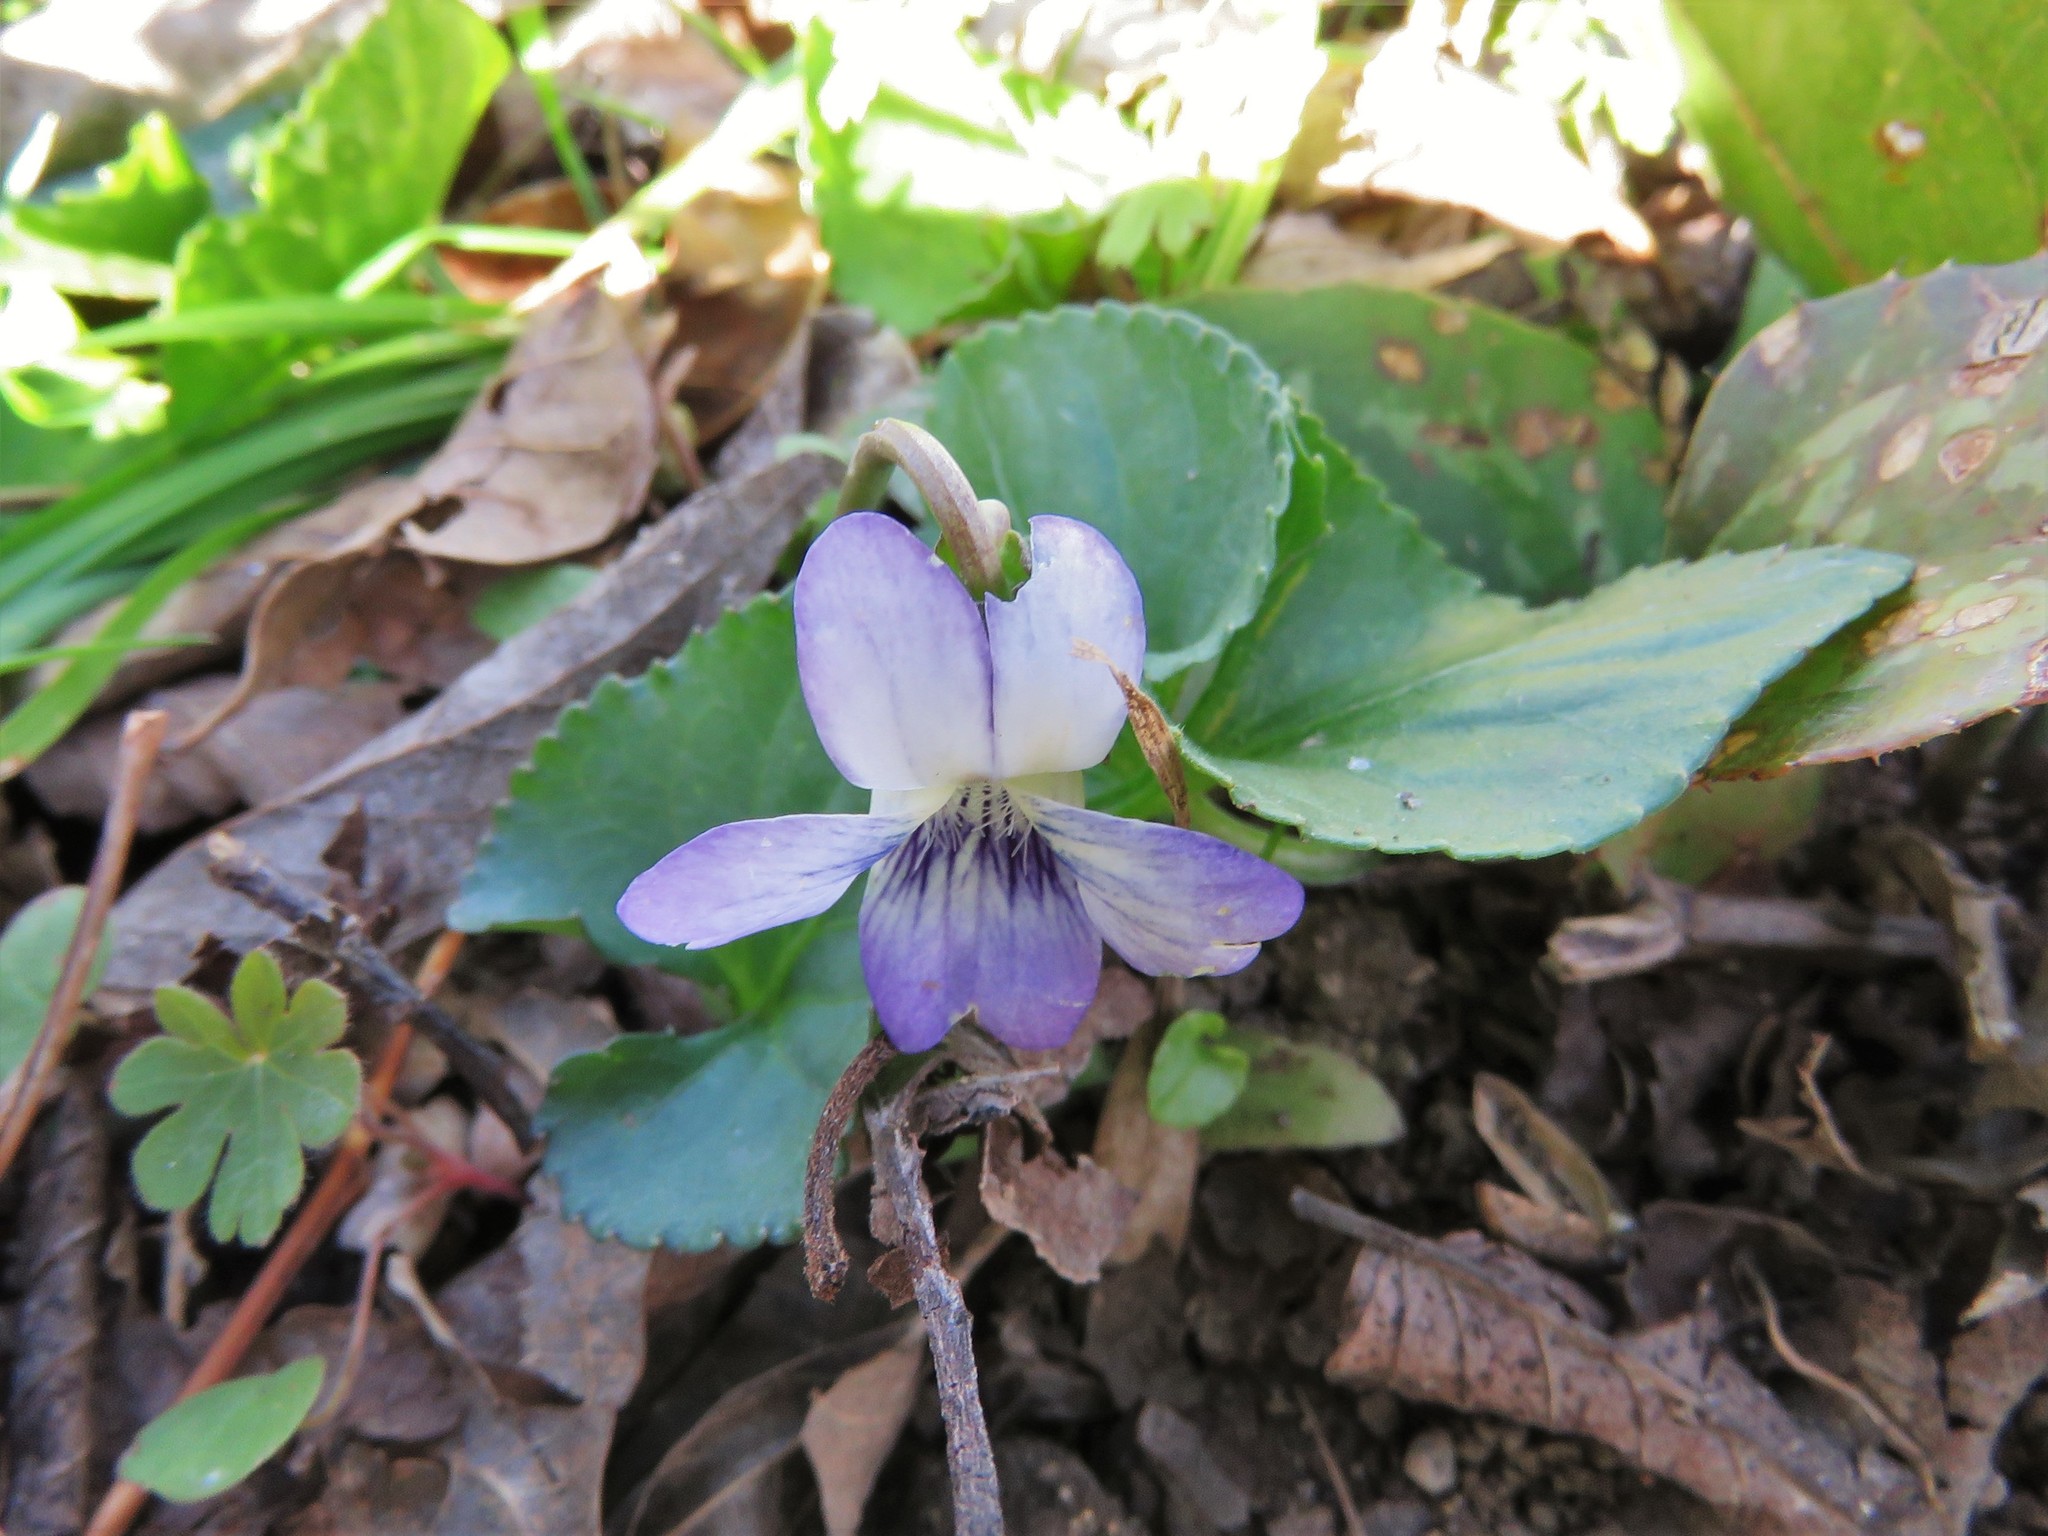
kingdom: Plantae
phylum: Tracheophyta
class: Magnoliopsida
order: Malpighiales
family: Violaceae
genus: Viola
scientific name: Viola sororia
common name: Dooryard violet
